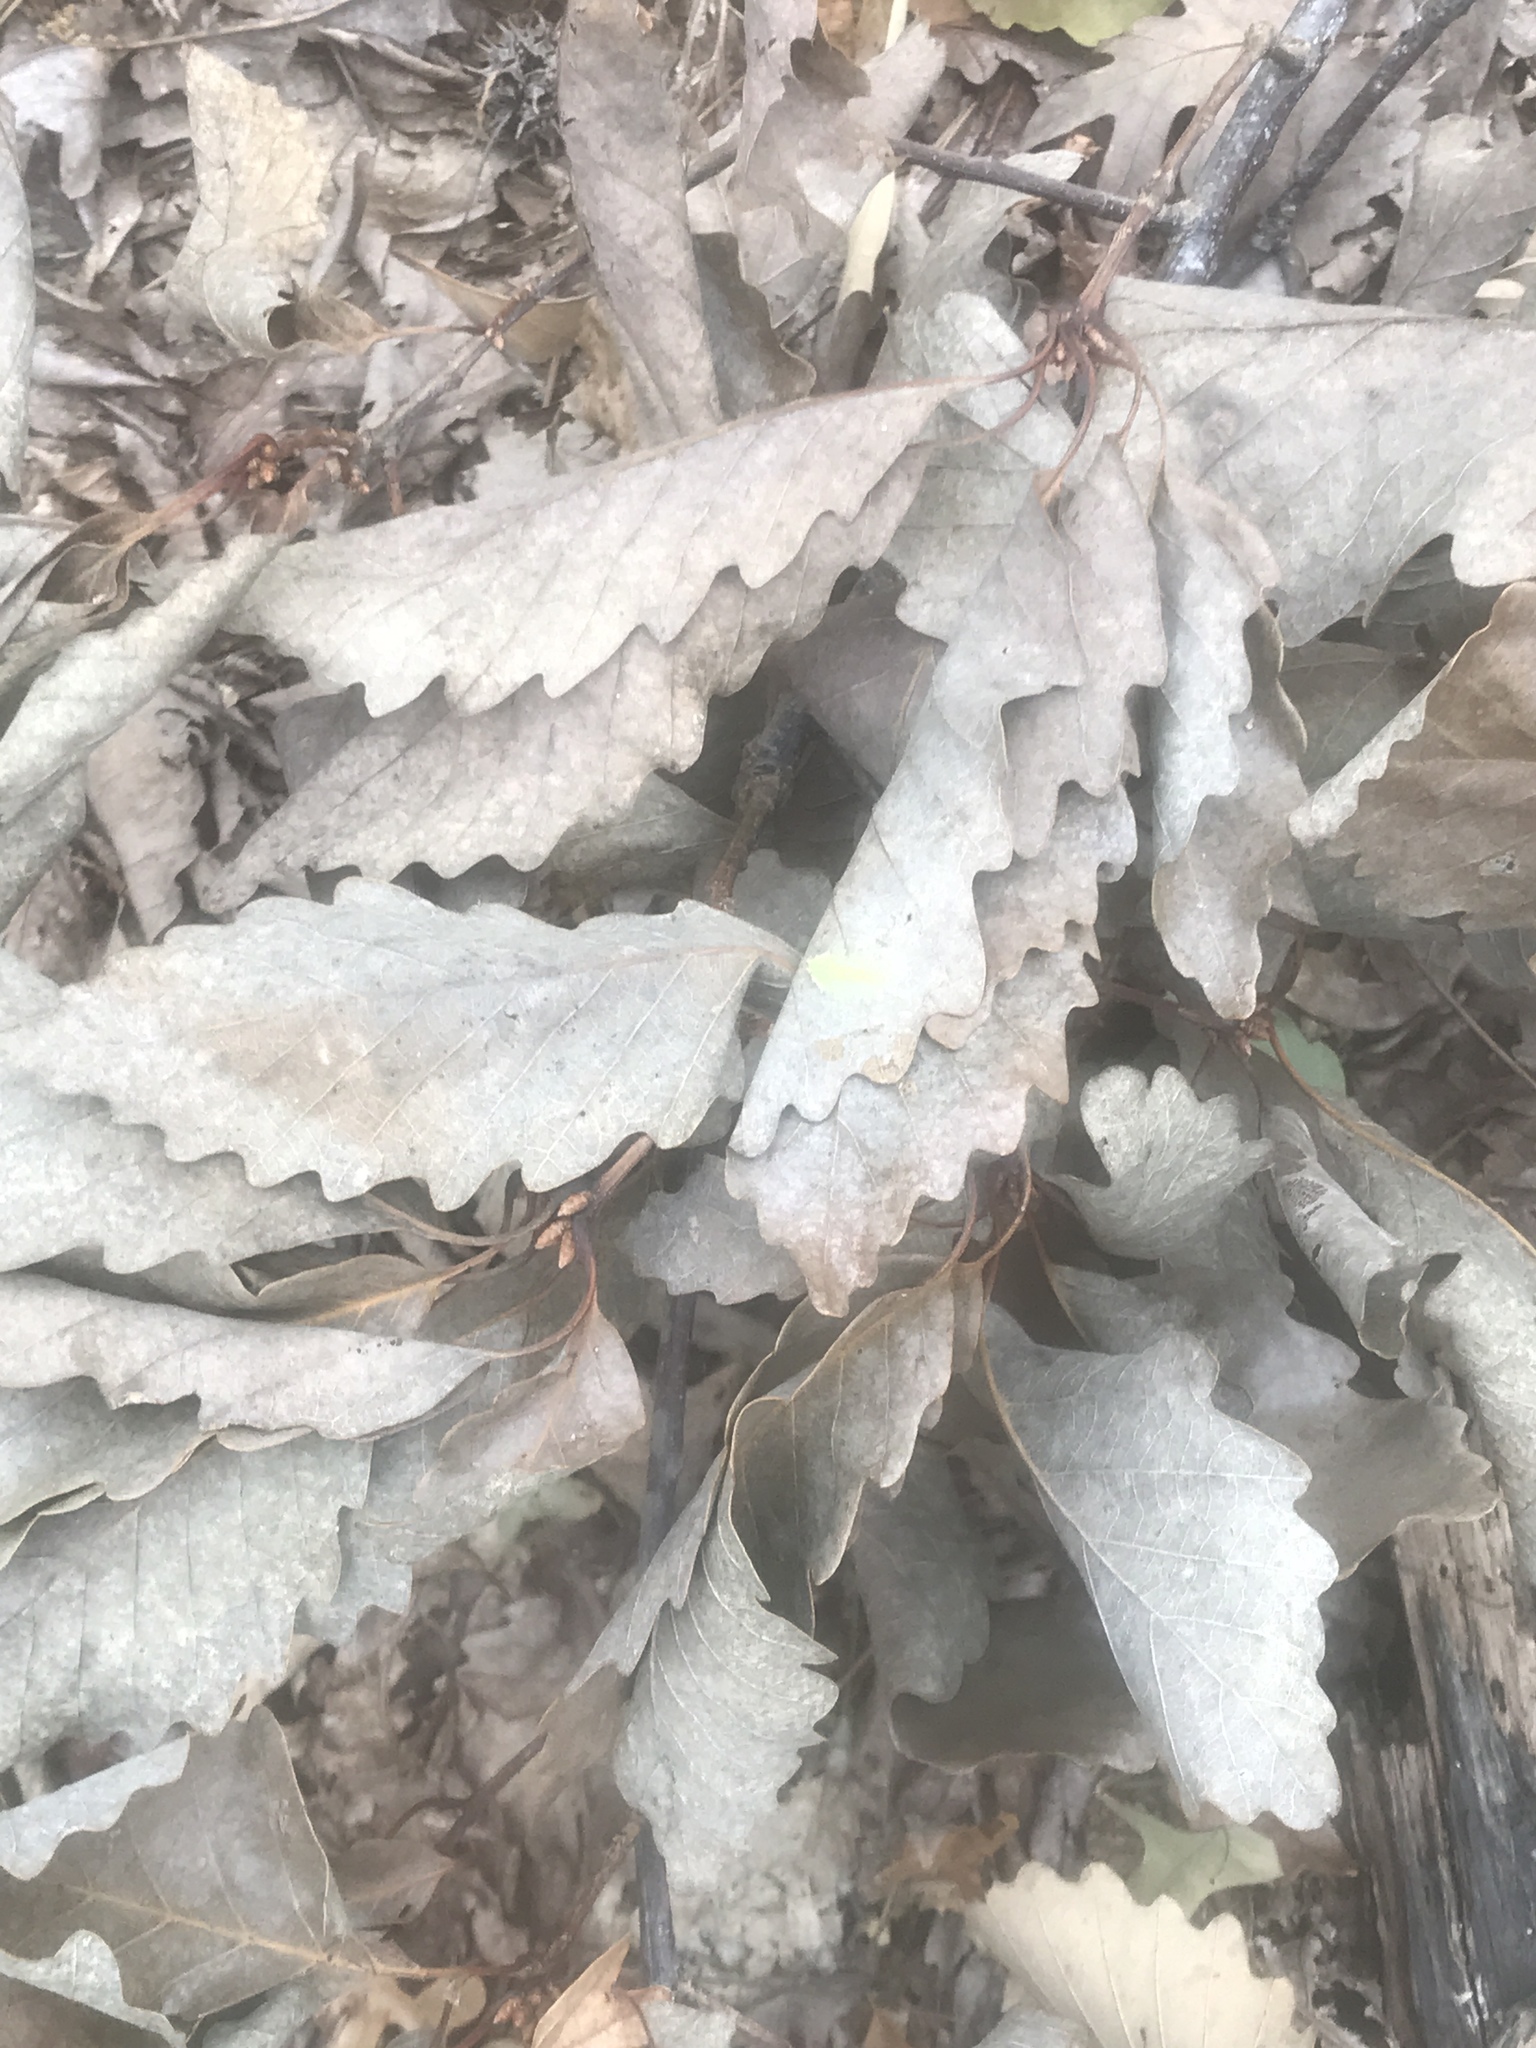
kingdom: Plantae
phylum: Tracheophyta
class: Magnoliopsida
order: Fagales
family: Fagaceae
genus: Quercus
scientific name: Quercus montana
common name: Chestnut oak
